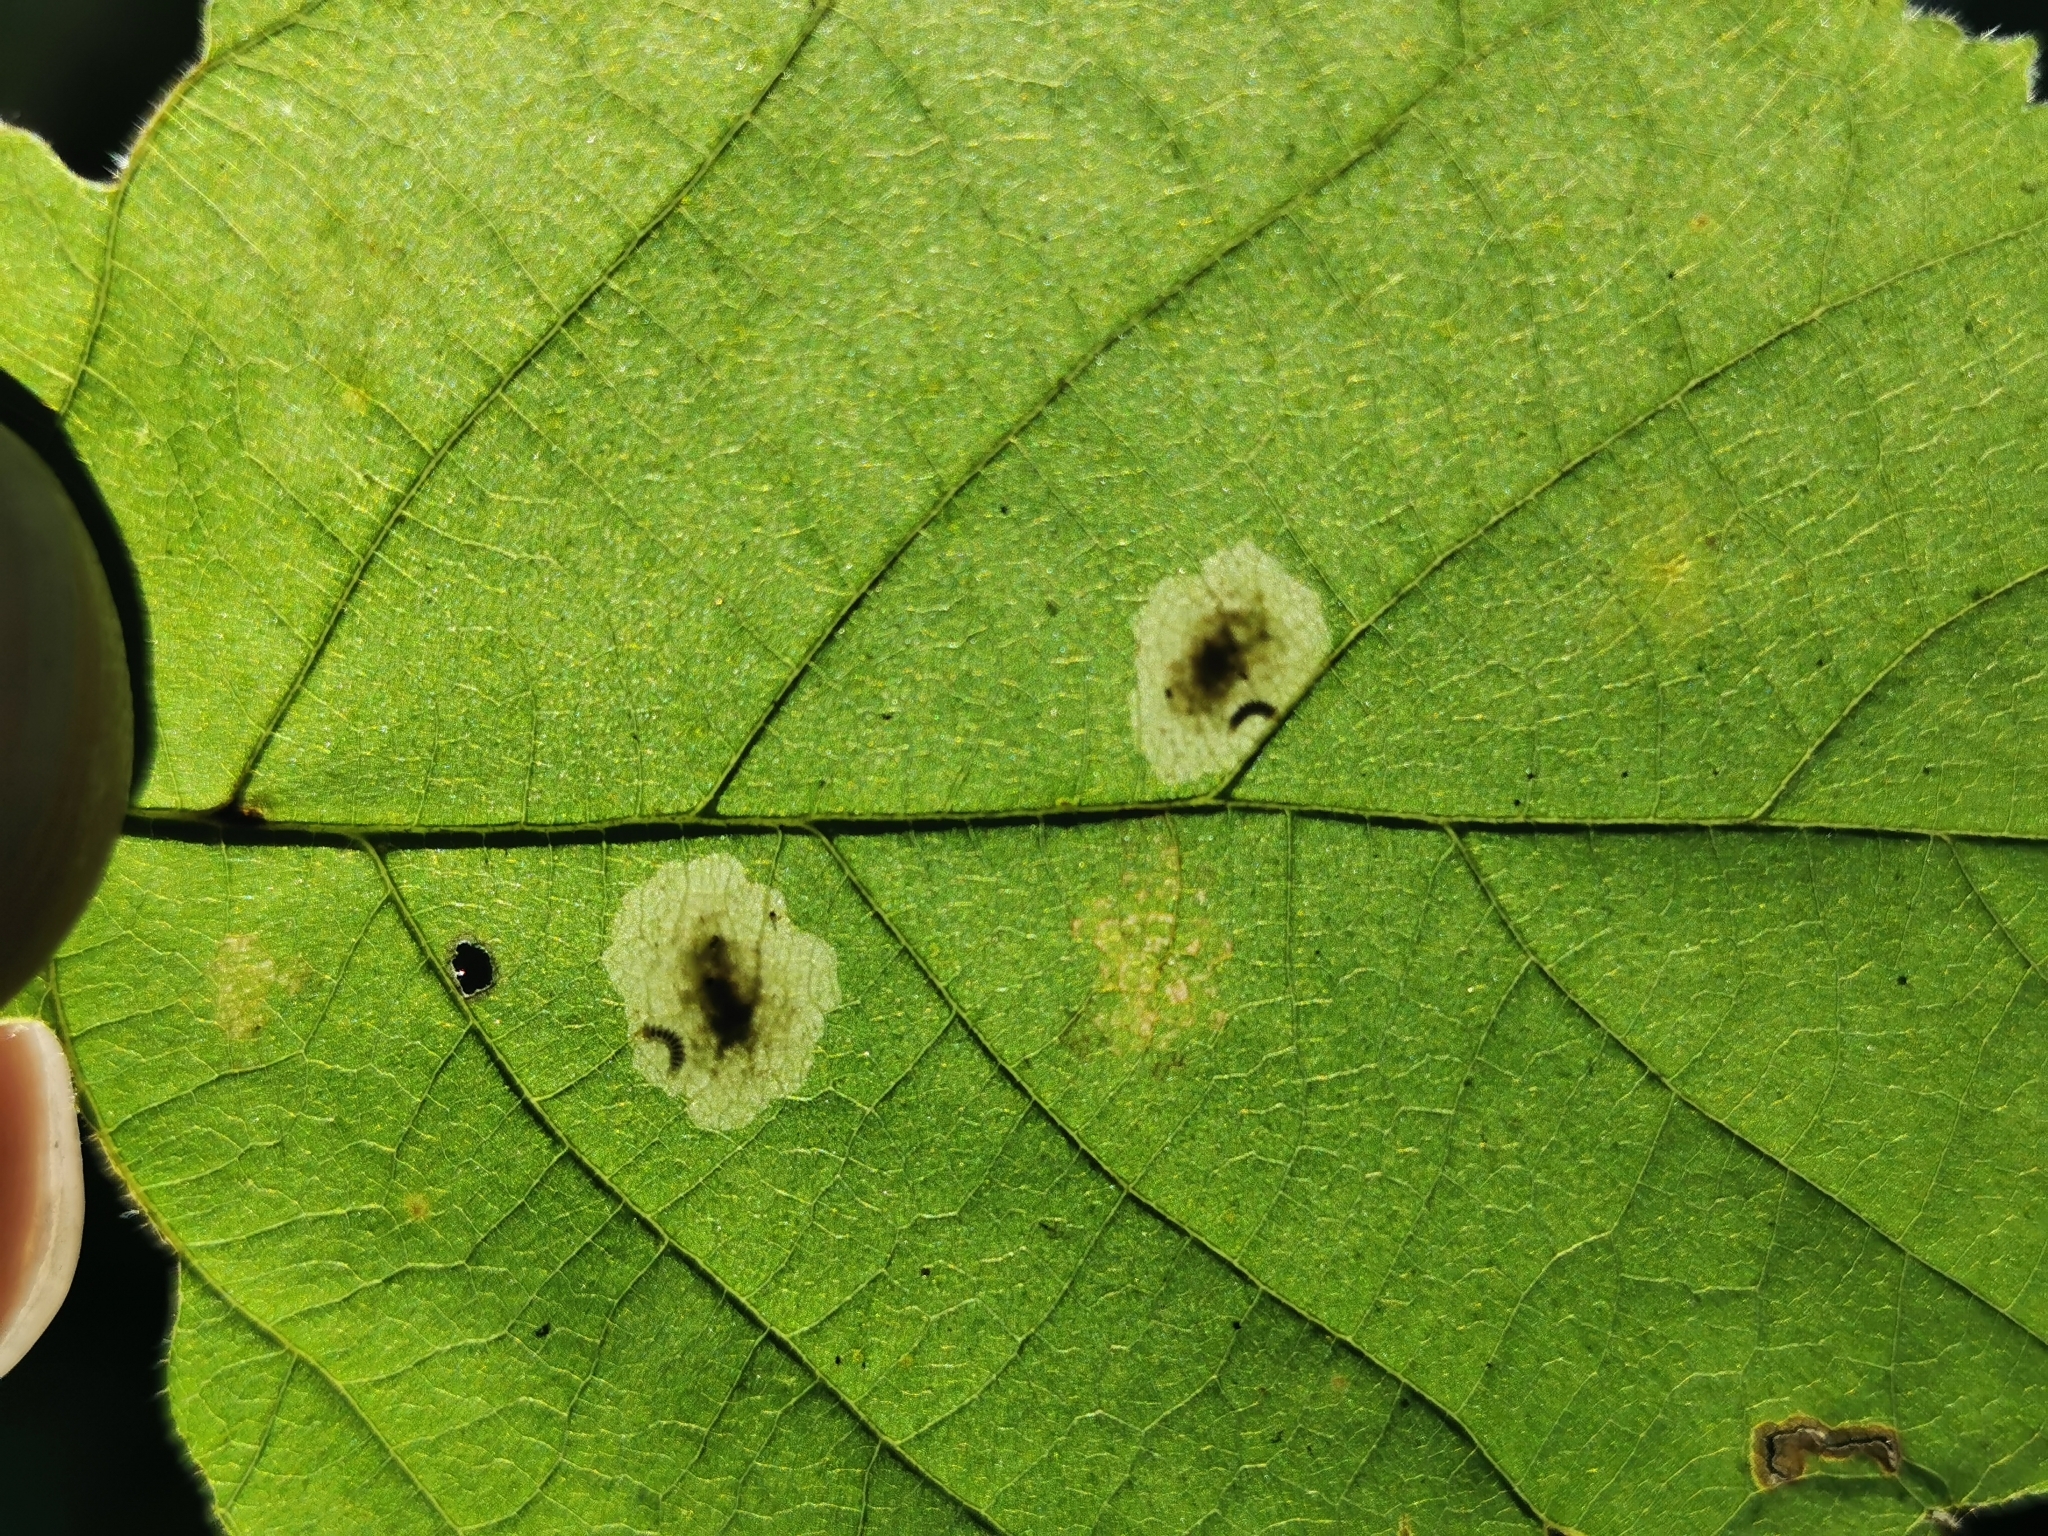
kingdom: Animalia
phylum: Arthropoda
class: Insecta
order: Lepidoptera
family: Gracillariidae
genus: Cameraria
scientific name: Cameraria corylisella
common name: Hazel blotchminer
